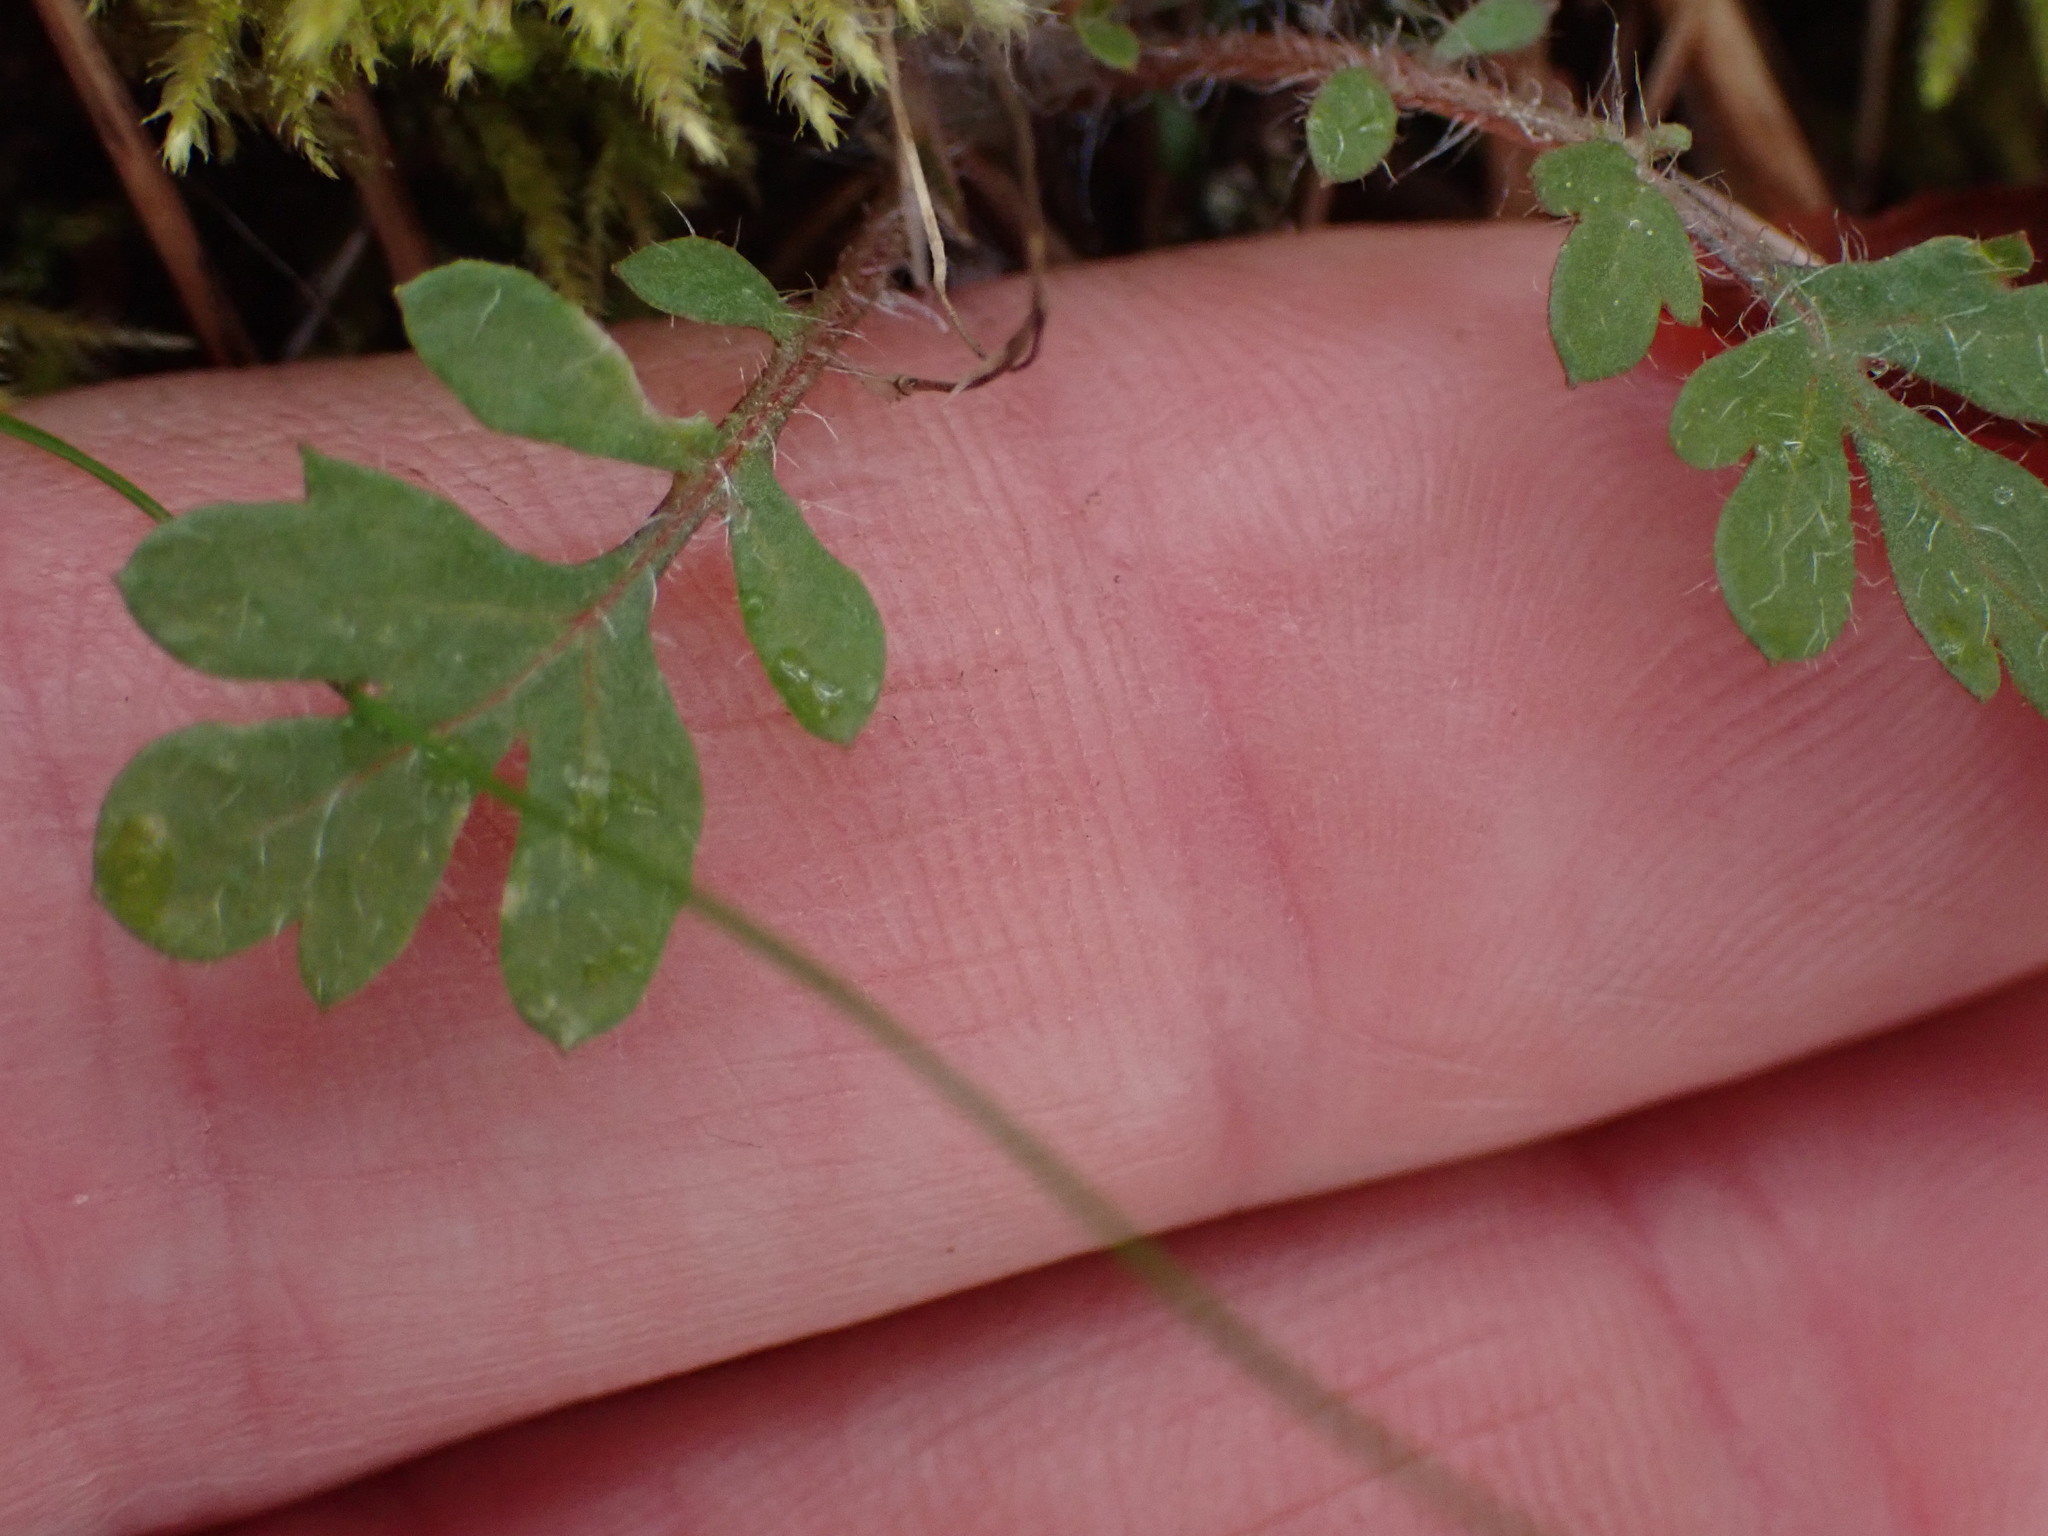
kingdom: Plantae
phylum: Tracheophyta
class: Magnoliopsida
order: Ericales
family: Polemoniaceae
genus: Collomia
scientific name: Collomia heterophylla
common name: Variable-leaved collomia
